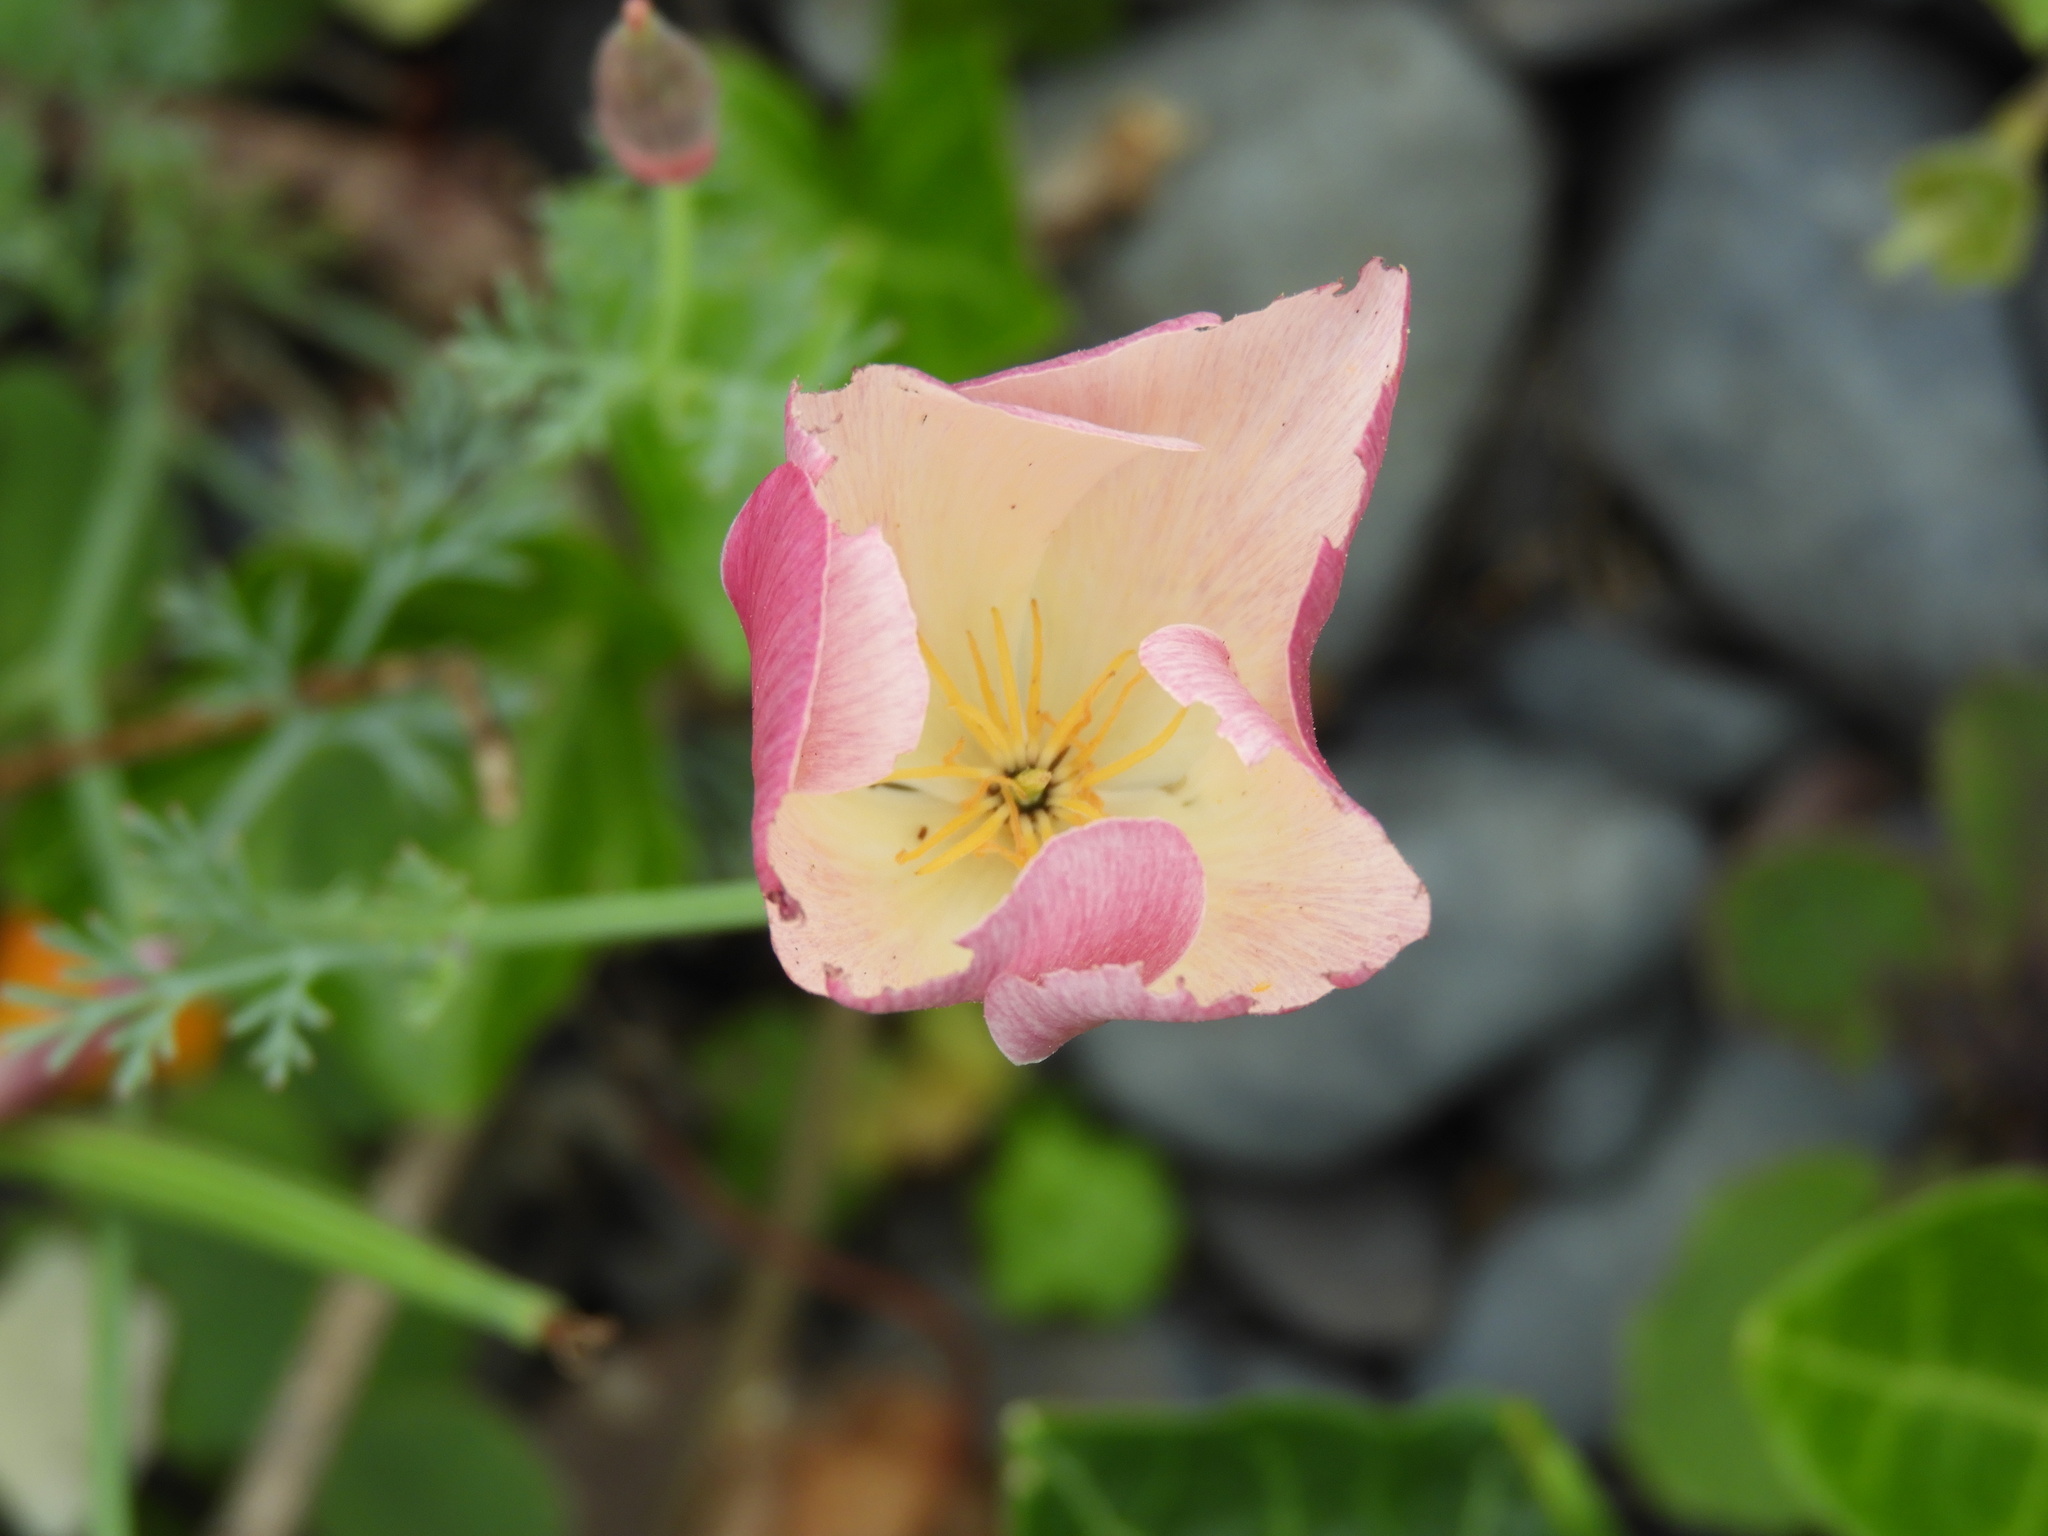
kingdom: Plantae
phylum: Tracheophyta
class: Magnoliopsida
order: Ranunculales
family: Papaveraceae
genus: Eschscholzia
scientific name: Eschscholzia californica
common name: California poppy
